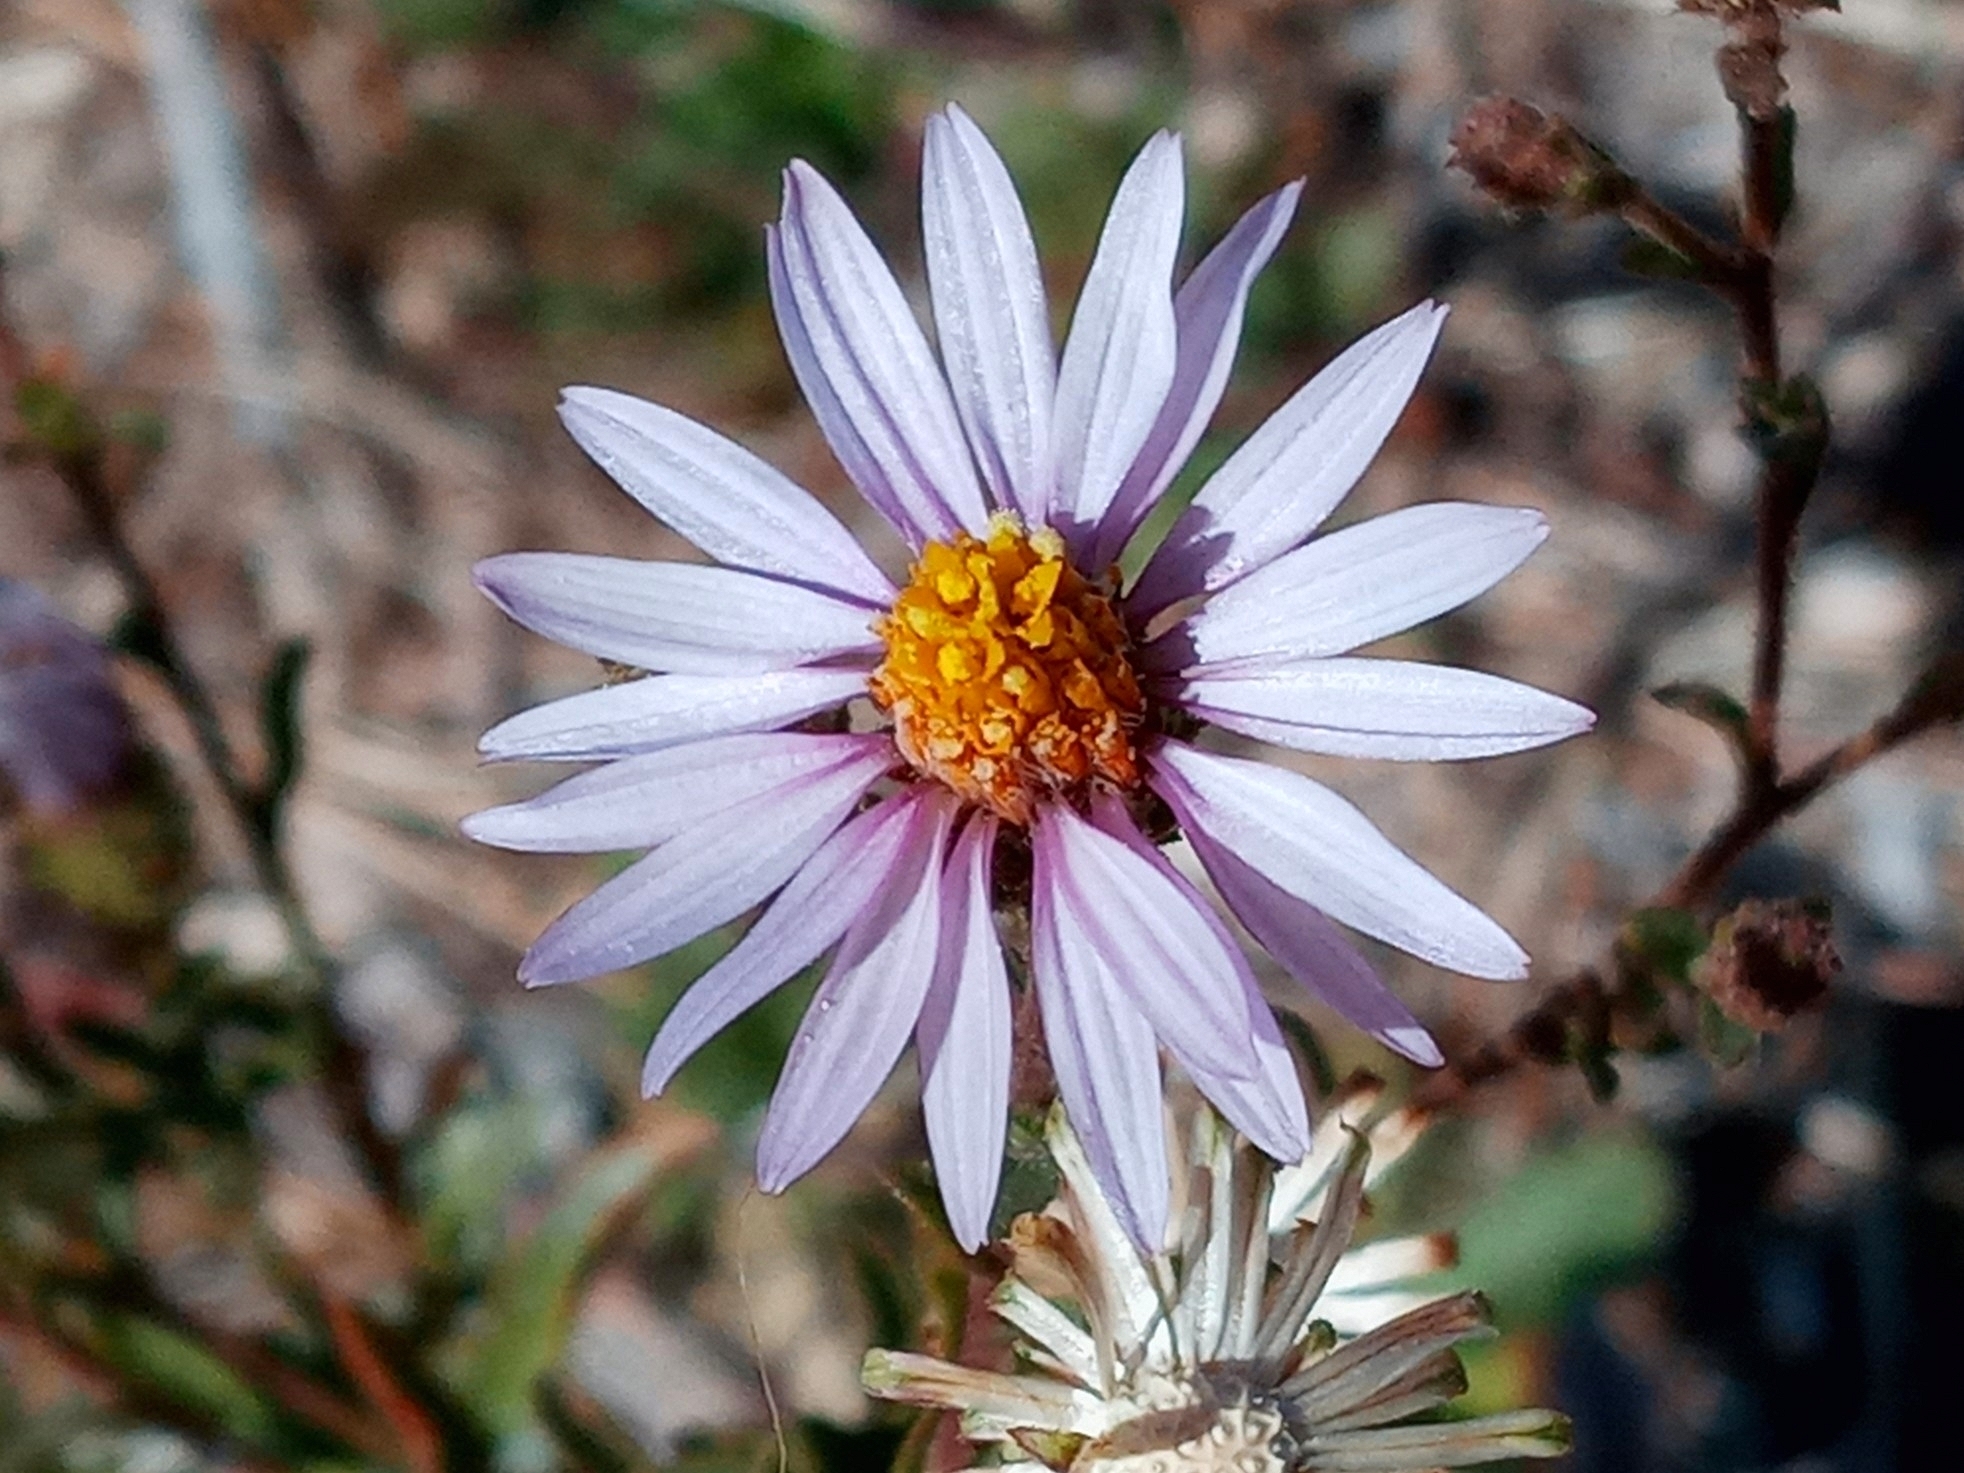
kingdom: Plantae
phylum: Tracheophyta
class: Magnoliopsida
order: Asterales
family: Asteraceae
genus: Corethrogyne
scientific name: Corethrogyne filaginifolia
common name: Sand-aster
